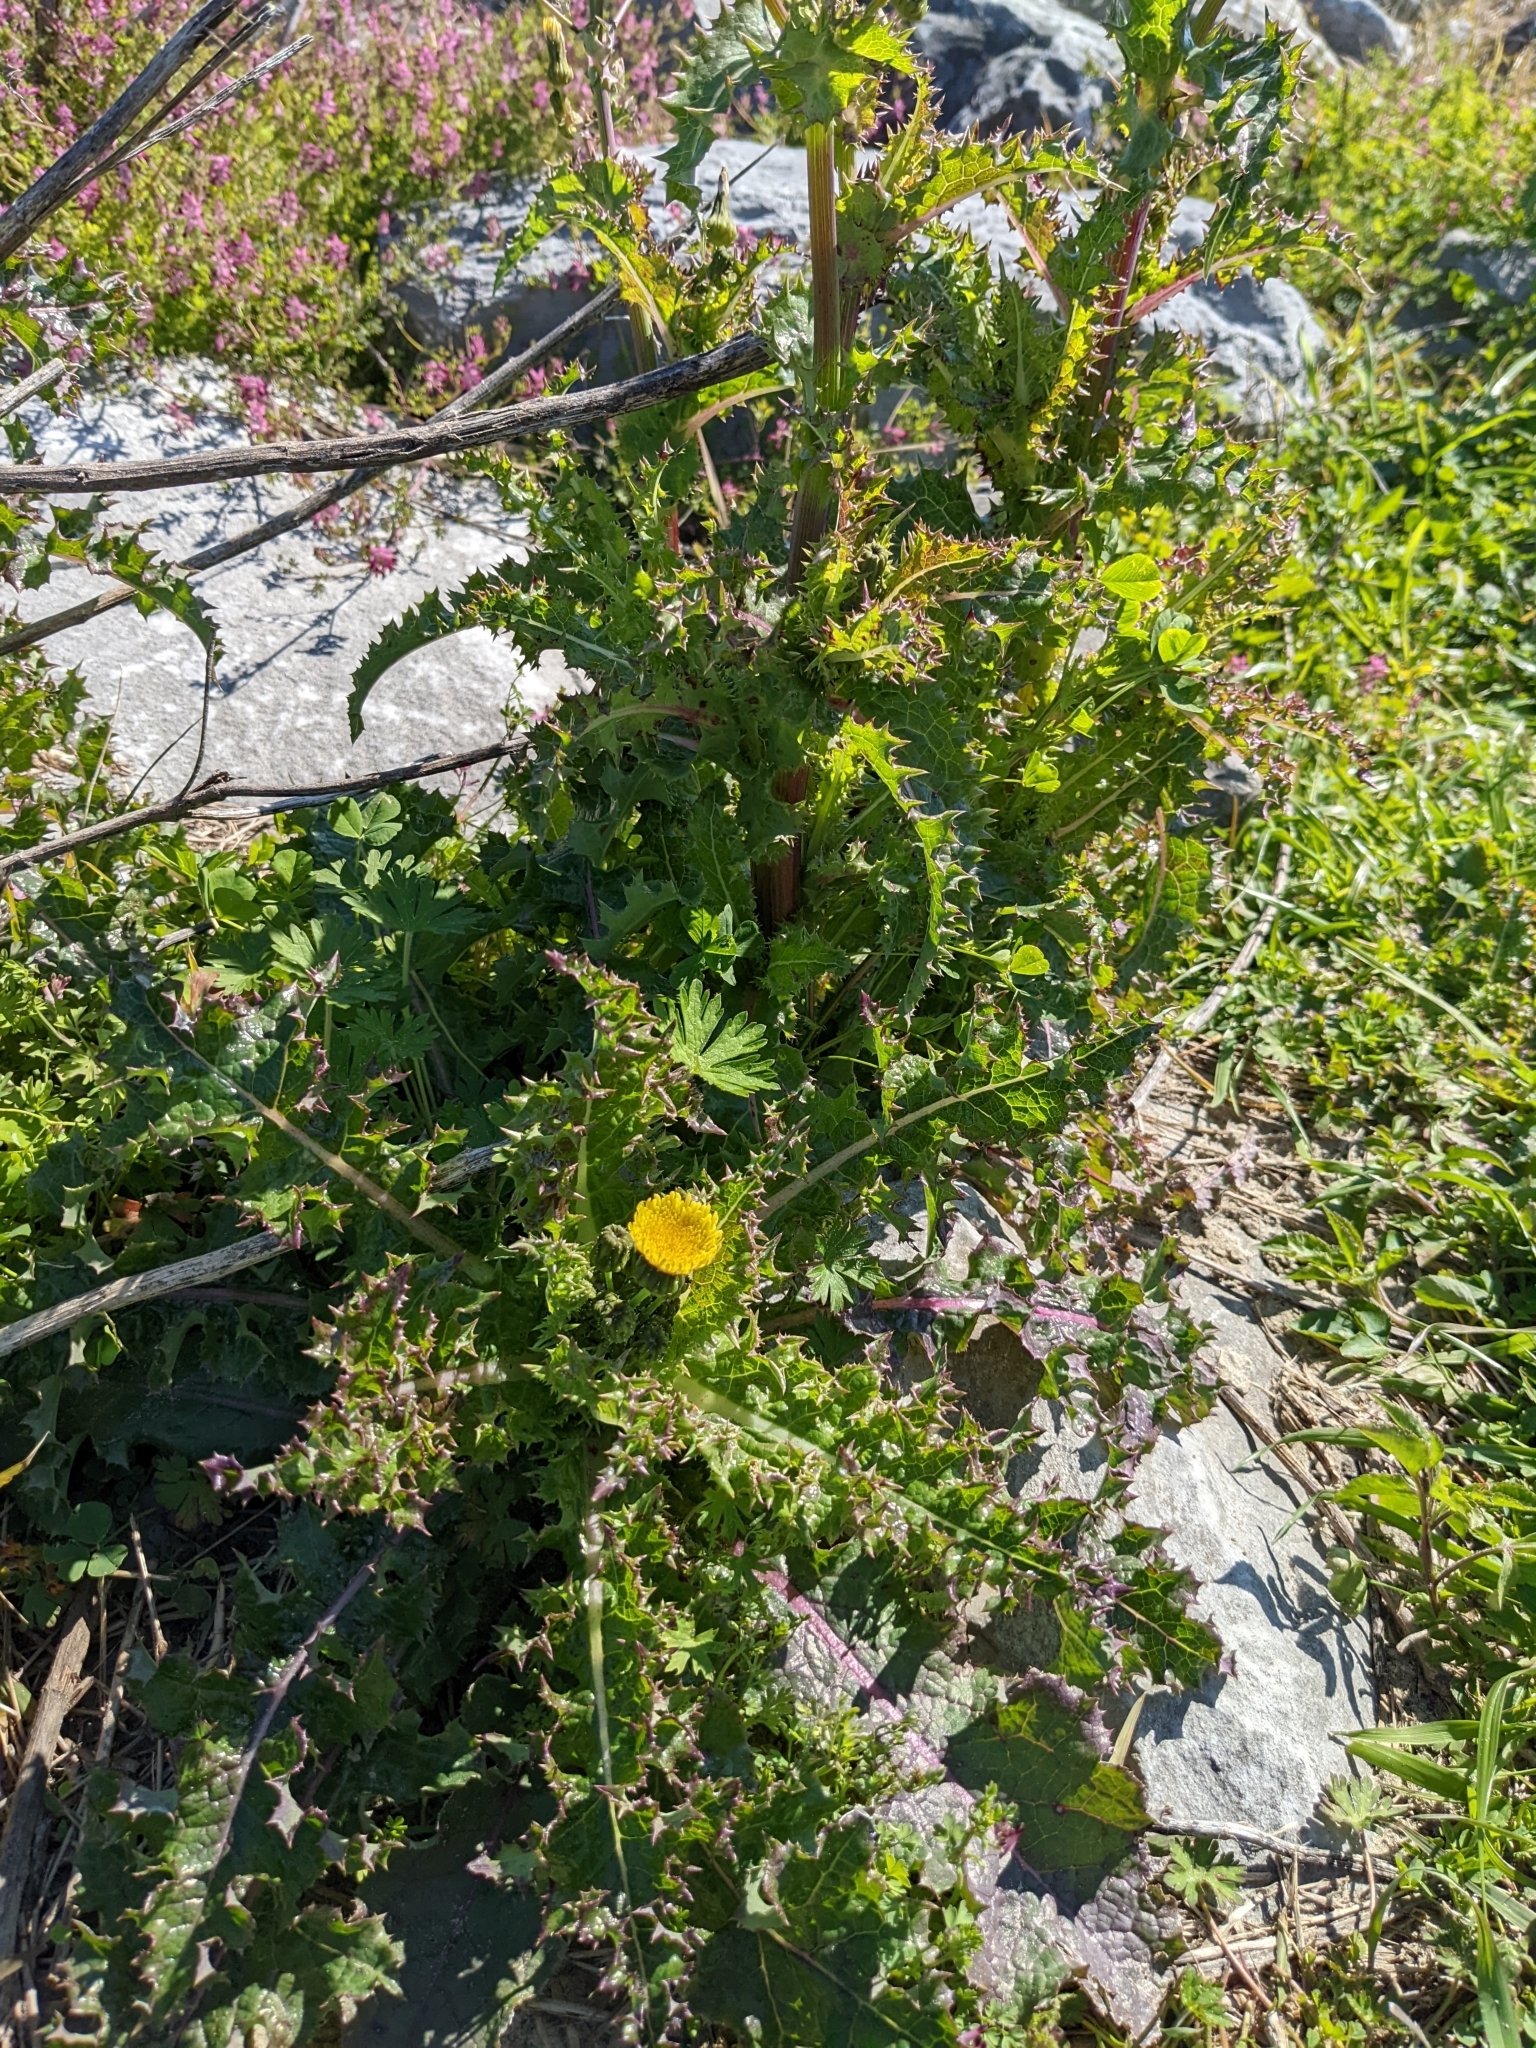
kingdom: Plantae
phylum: Tracheophyta
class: Magnoliopsida
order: Asterales
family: Asteraceae
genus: Sonchus
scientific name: Sonchus asper
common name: Prickly sow-thistle
